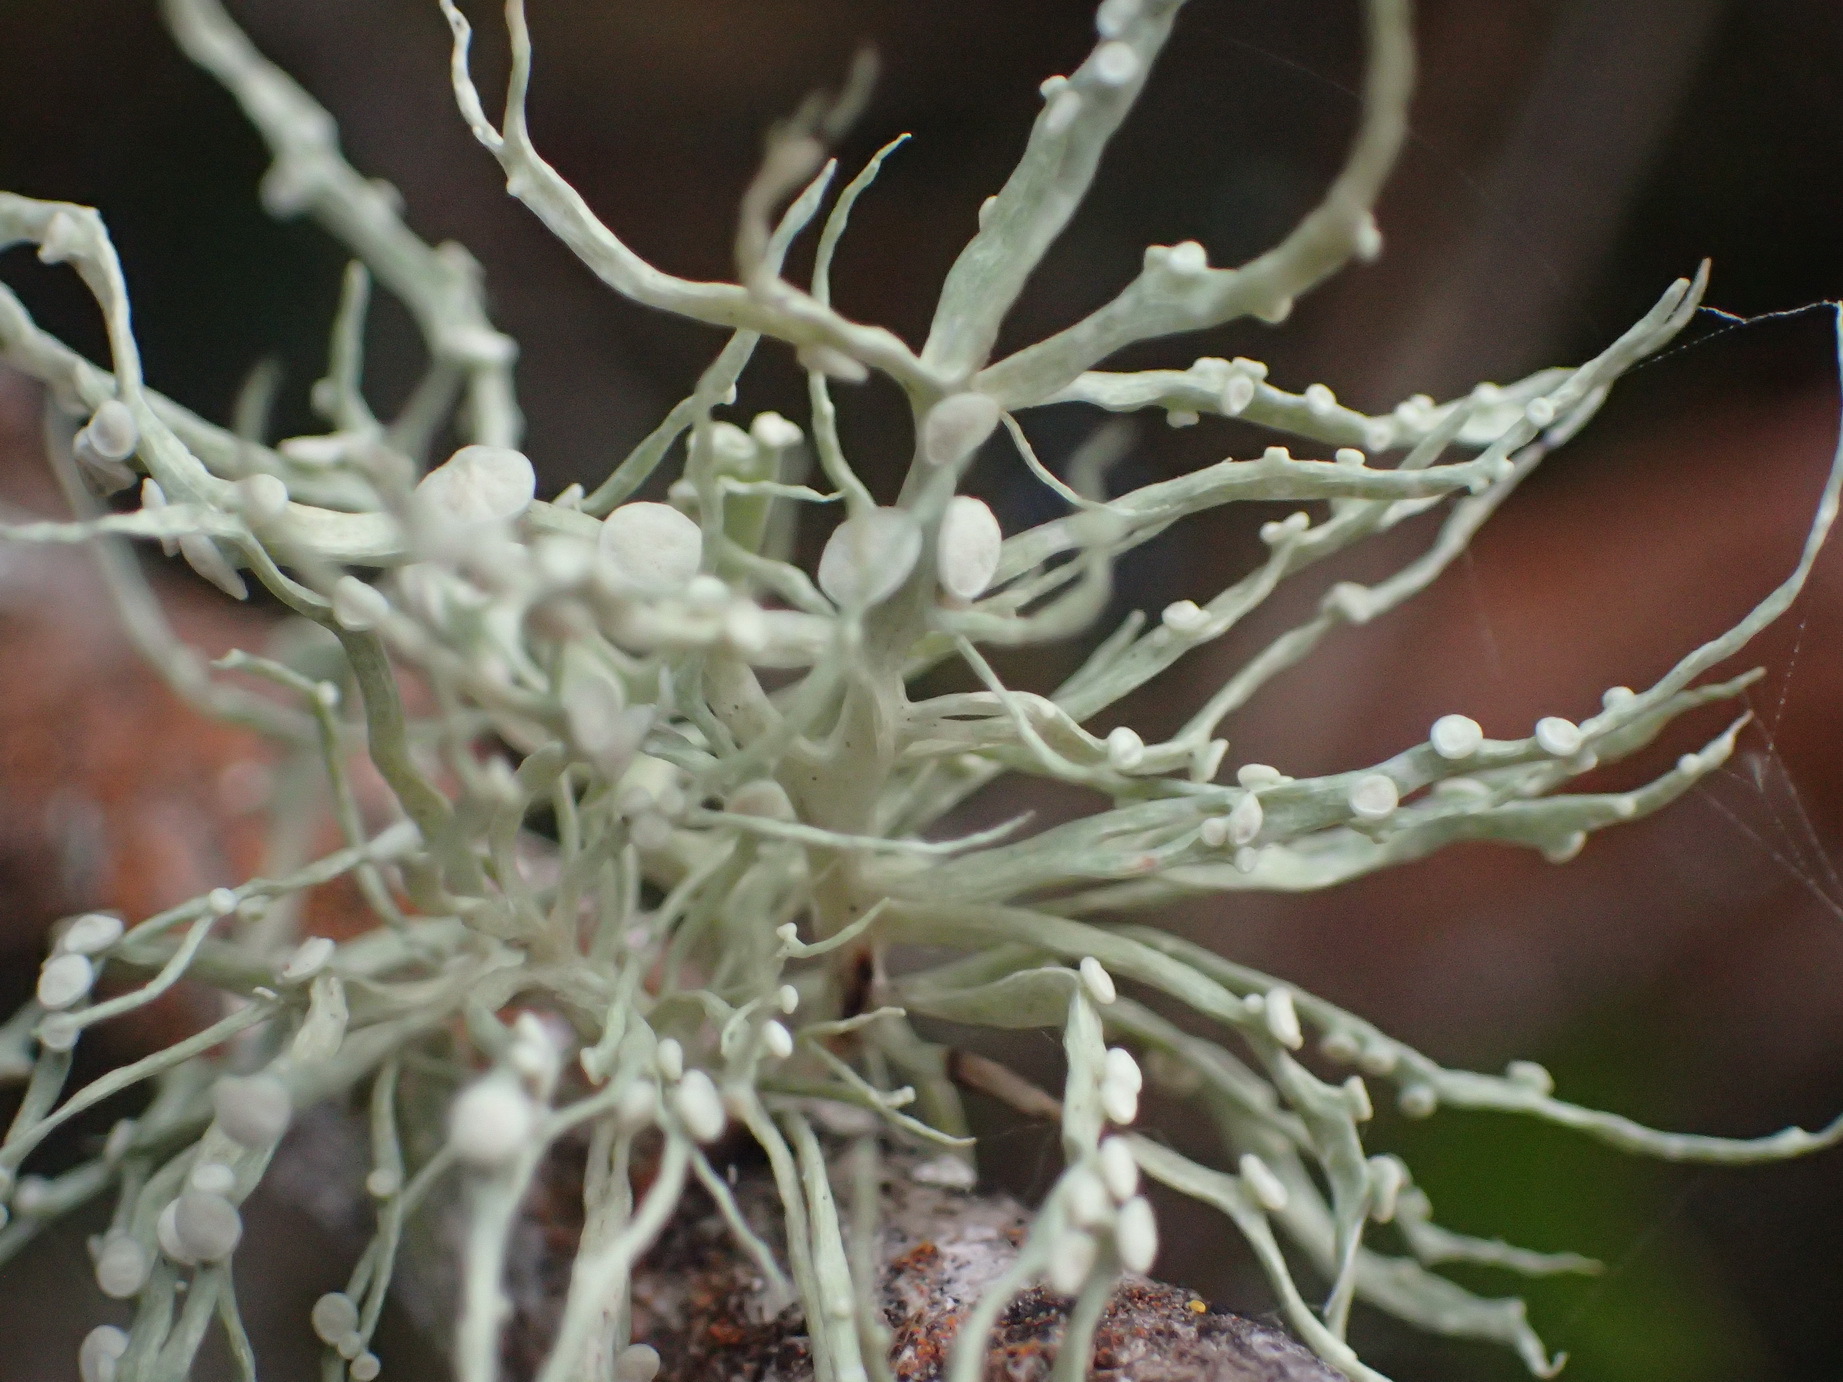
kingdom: Fungi
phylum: Ascomycota
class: Lecanoromycetes
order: Lecanorales
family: Ramalinaceae
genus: Ramalina
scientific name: Ramalina celastri
